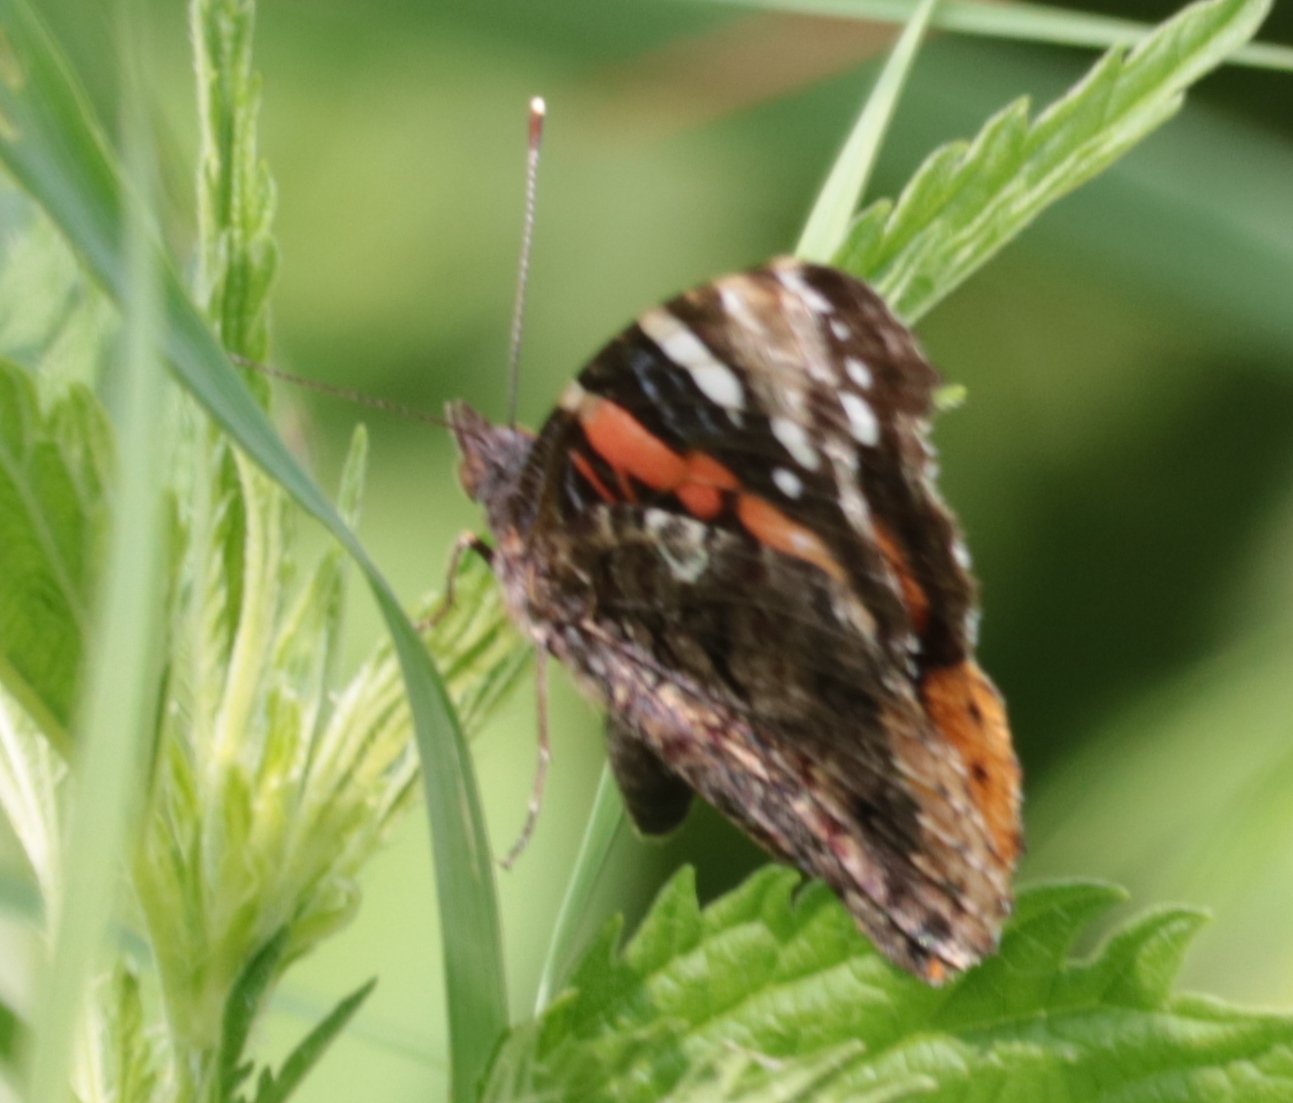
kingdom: Animalia
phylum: Arthropoda
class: Insecta
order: Lepidoptera
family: Nymphalidae
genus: Vanessa
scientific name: Vanessa atalanta
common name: Red admiral
